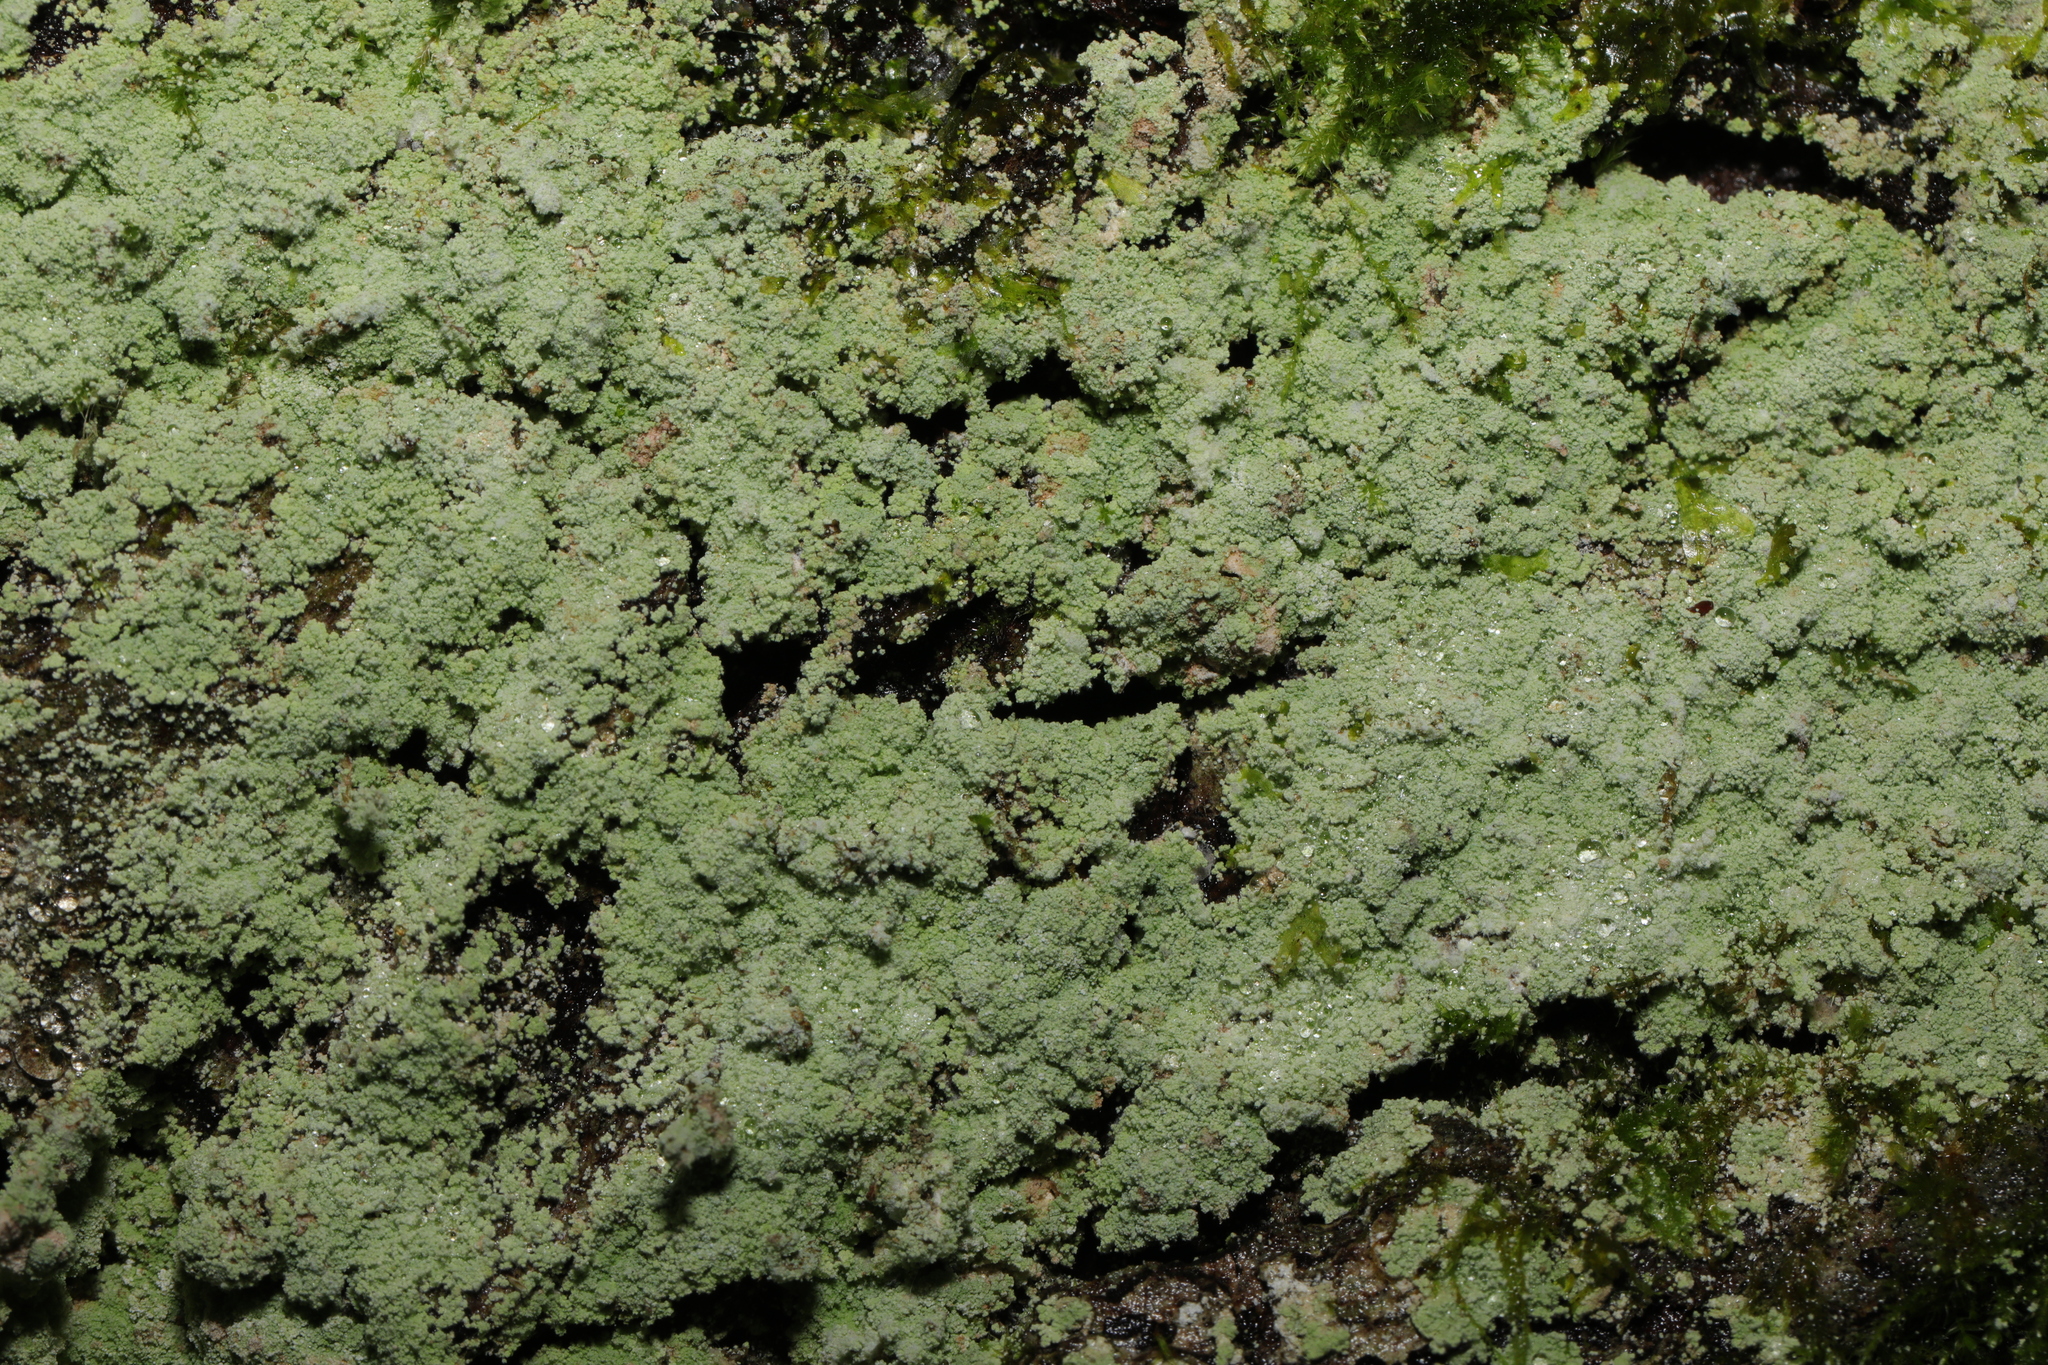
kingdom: Fungi
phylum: Ascomycota
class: Lecanoromycetes
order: Lecanorales
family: Stereocaulaceae
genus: Lepraria
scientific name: Lepraria
